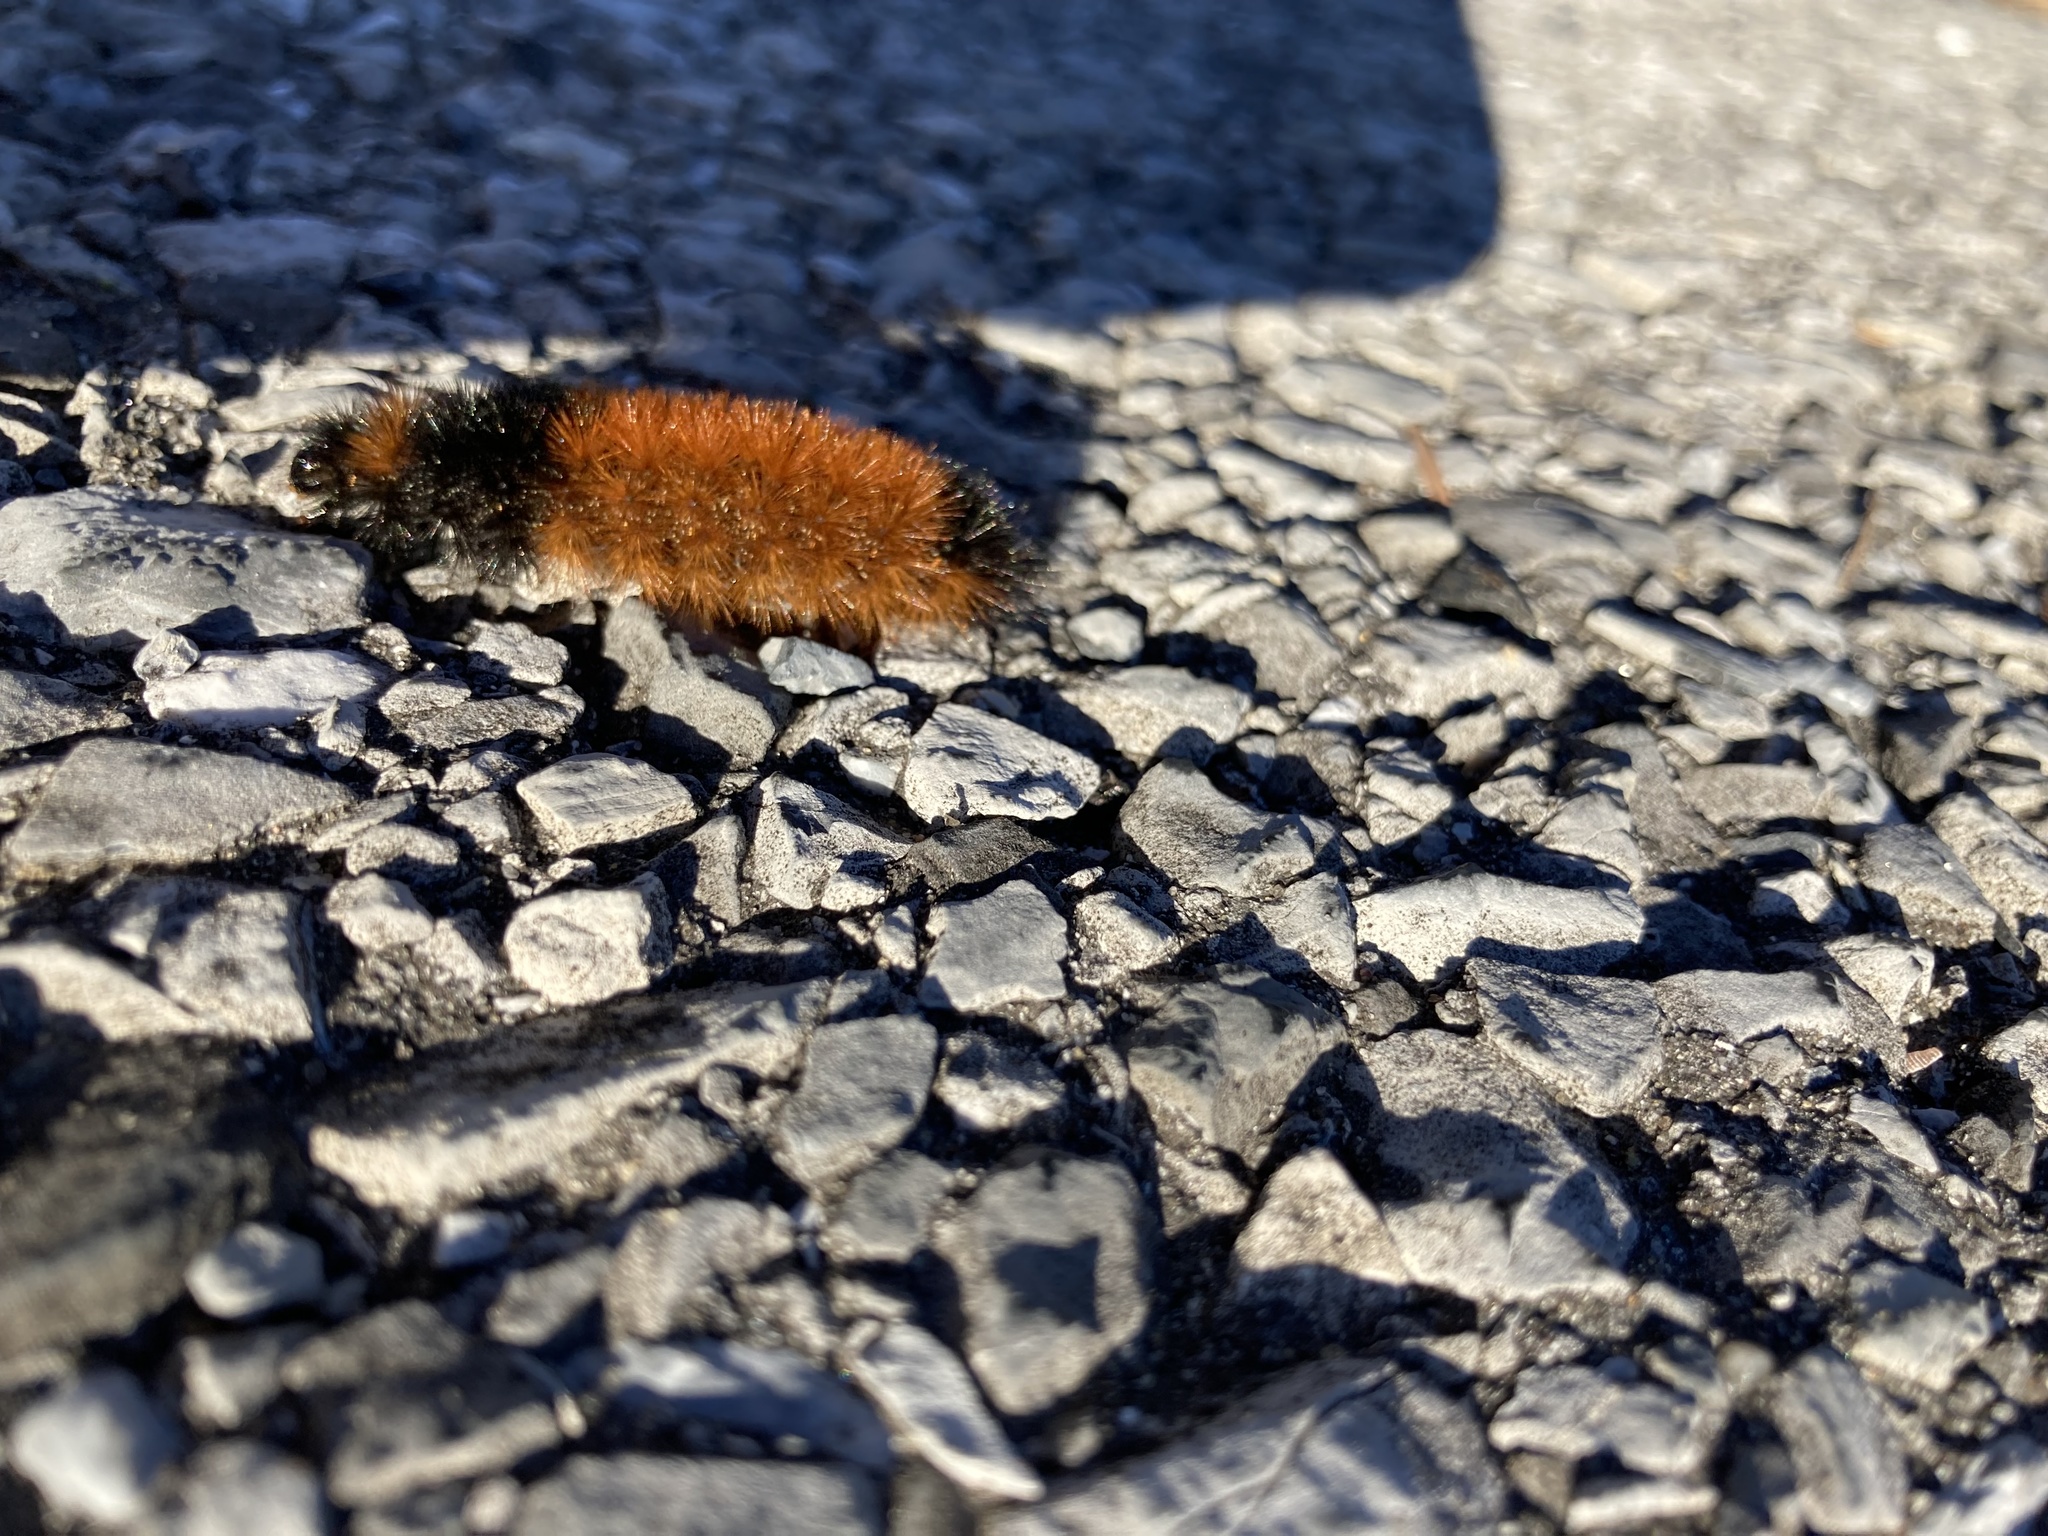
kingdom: Animalia
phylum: Arthropoda
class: Insecta
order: Lepidoptera
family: Erebidae
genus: Pyrrharctia
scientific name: Pyrrharctia isabella
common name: Isabella tiger moth
